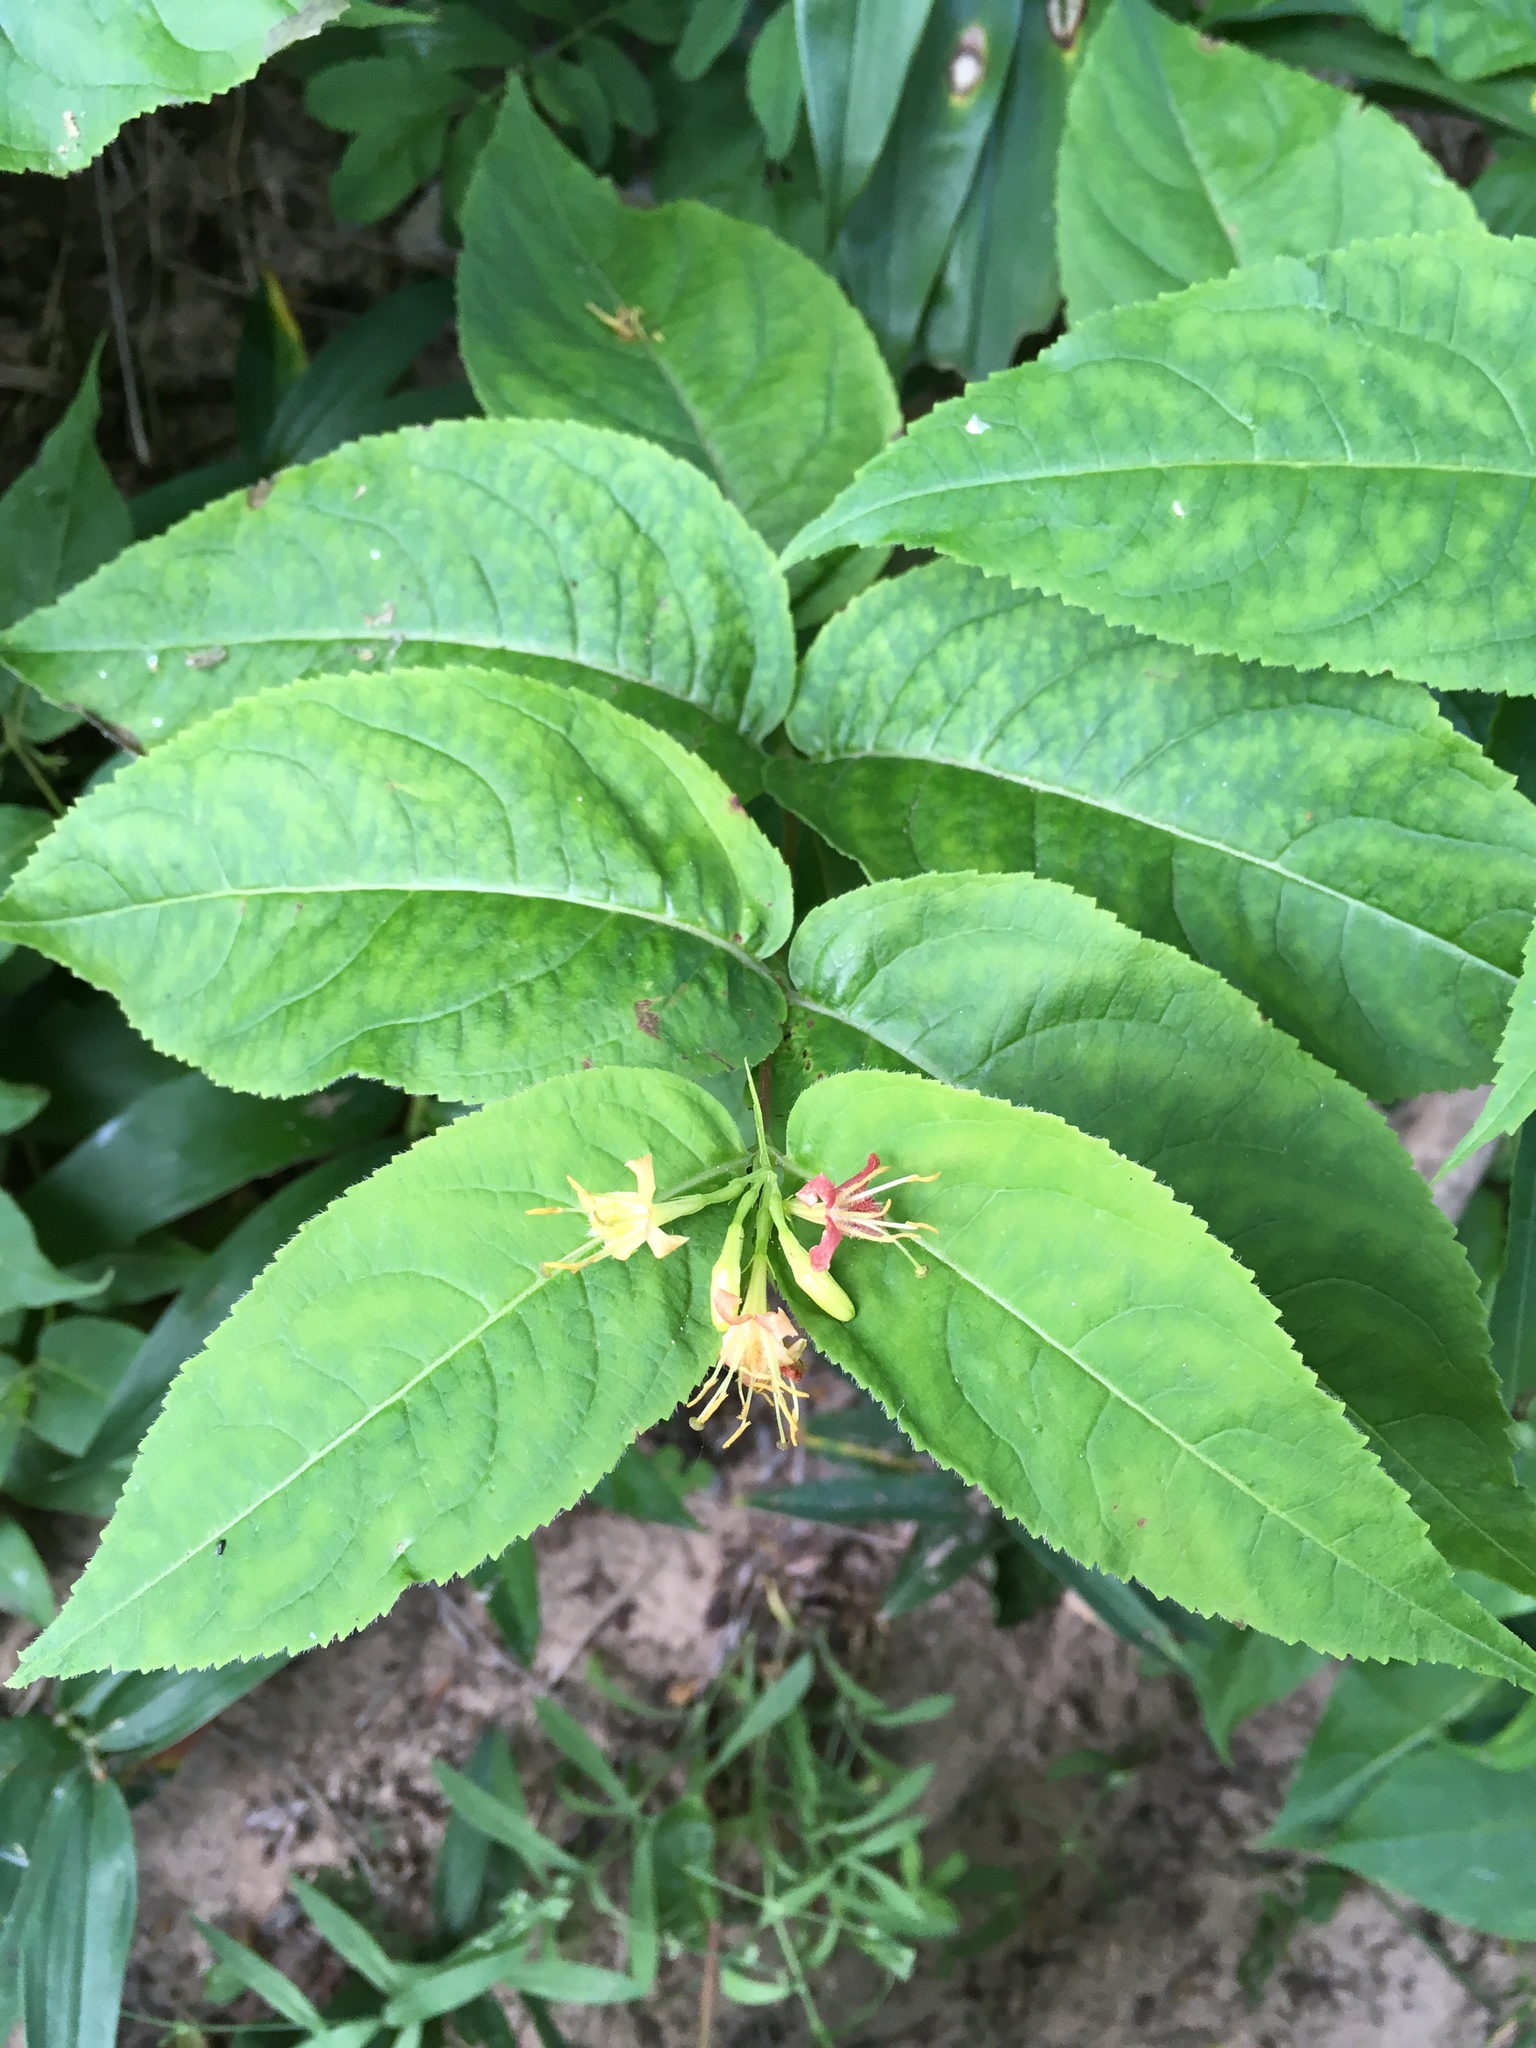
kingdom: Plantae
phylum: Tracheophyta
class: Magnoliopsida
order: Dipsacales
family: Caprifoliaceae
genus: Diervilla
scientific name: Diervilla lonicera
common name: Bush-honeysuckle
